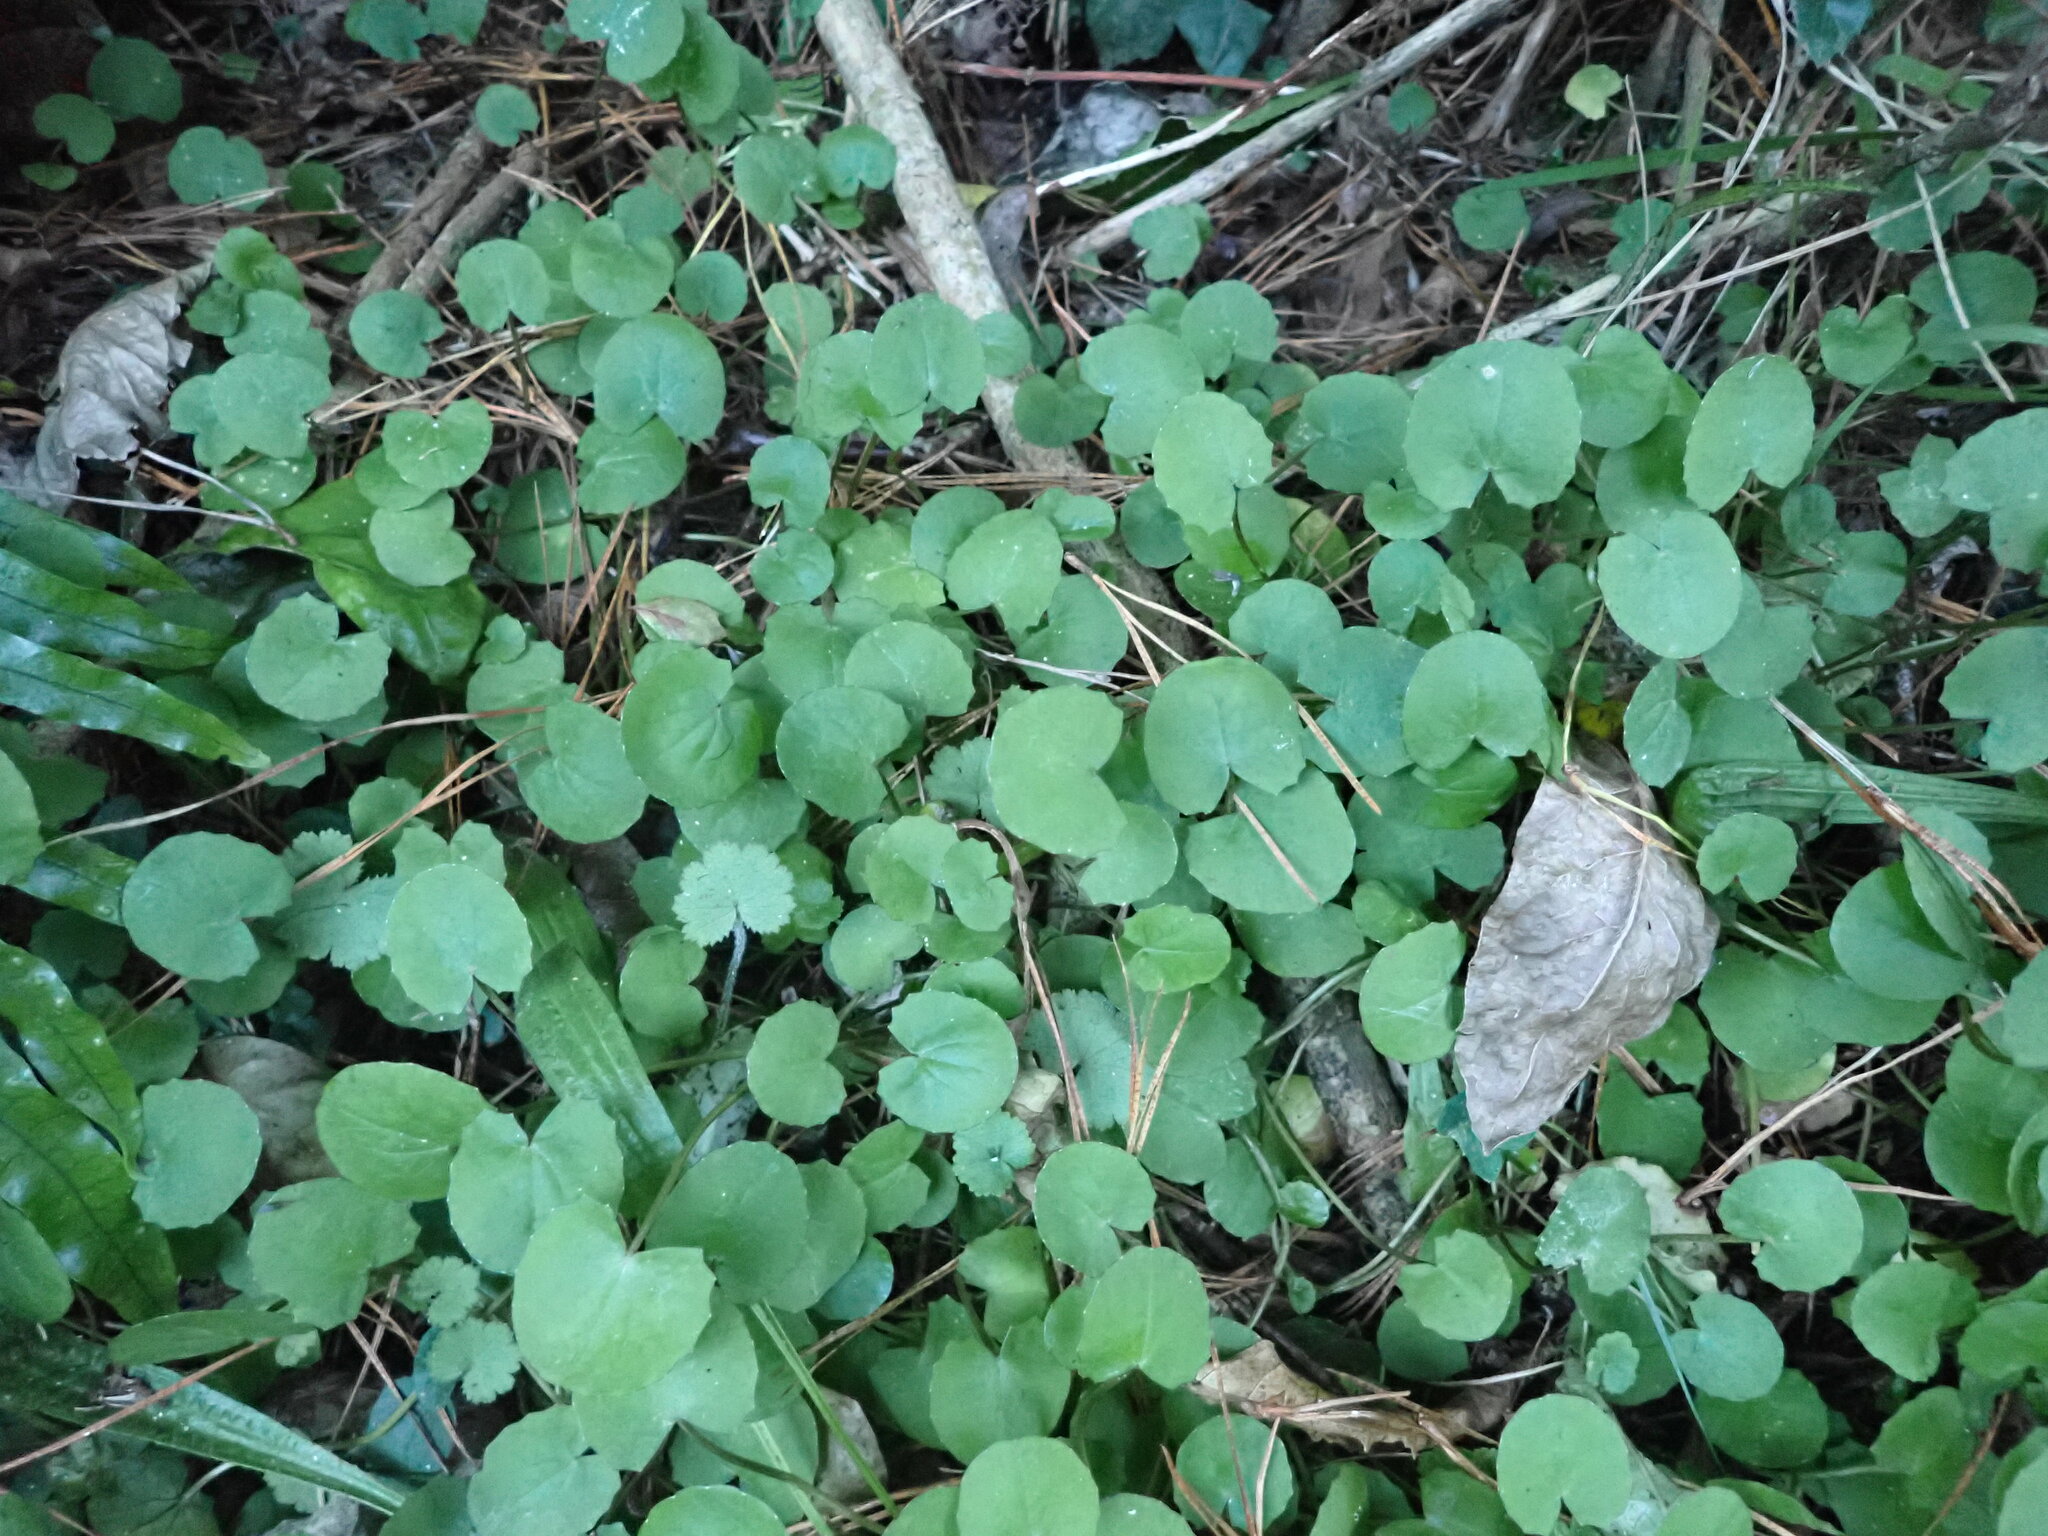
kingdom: Plantae
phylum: Tracheophyta
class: Magnoliopsida
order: Apiales
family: Apiaceae
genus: Centella
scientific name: Centella uniflora
